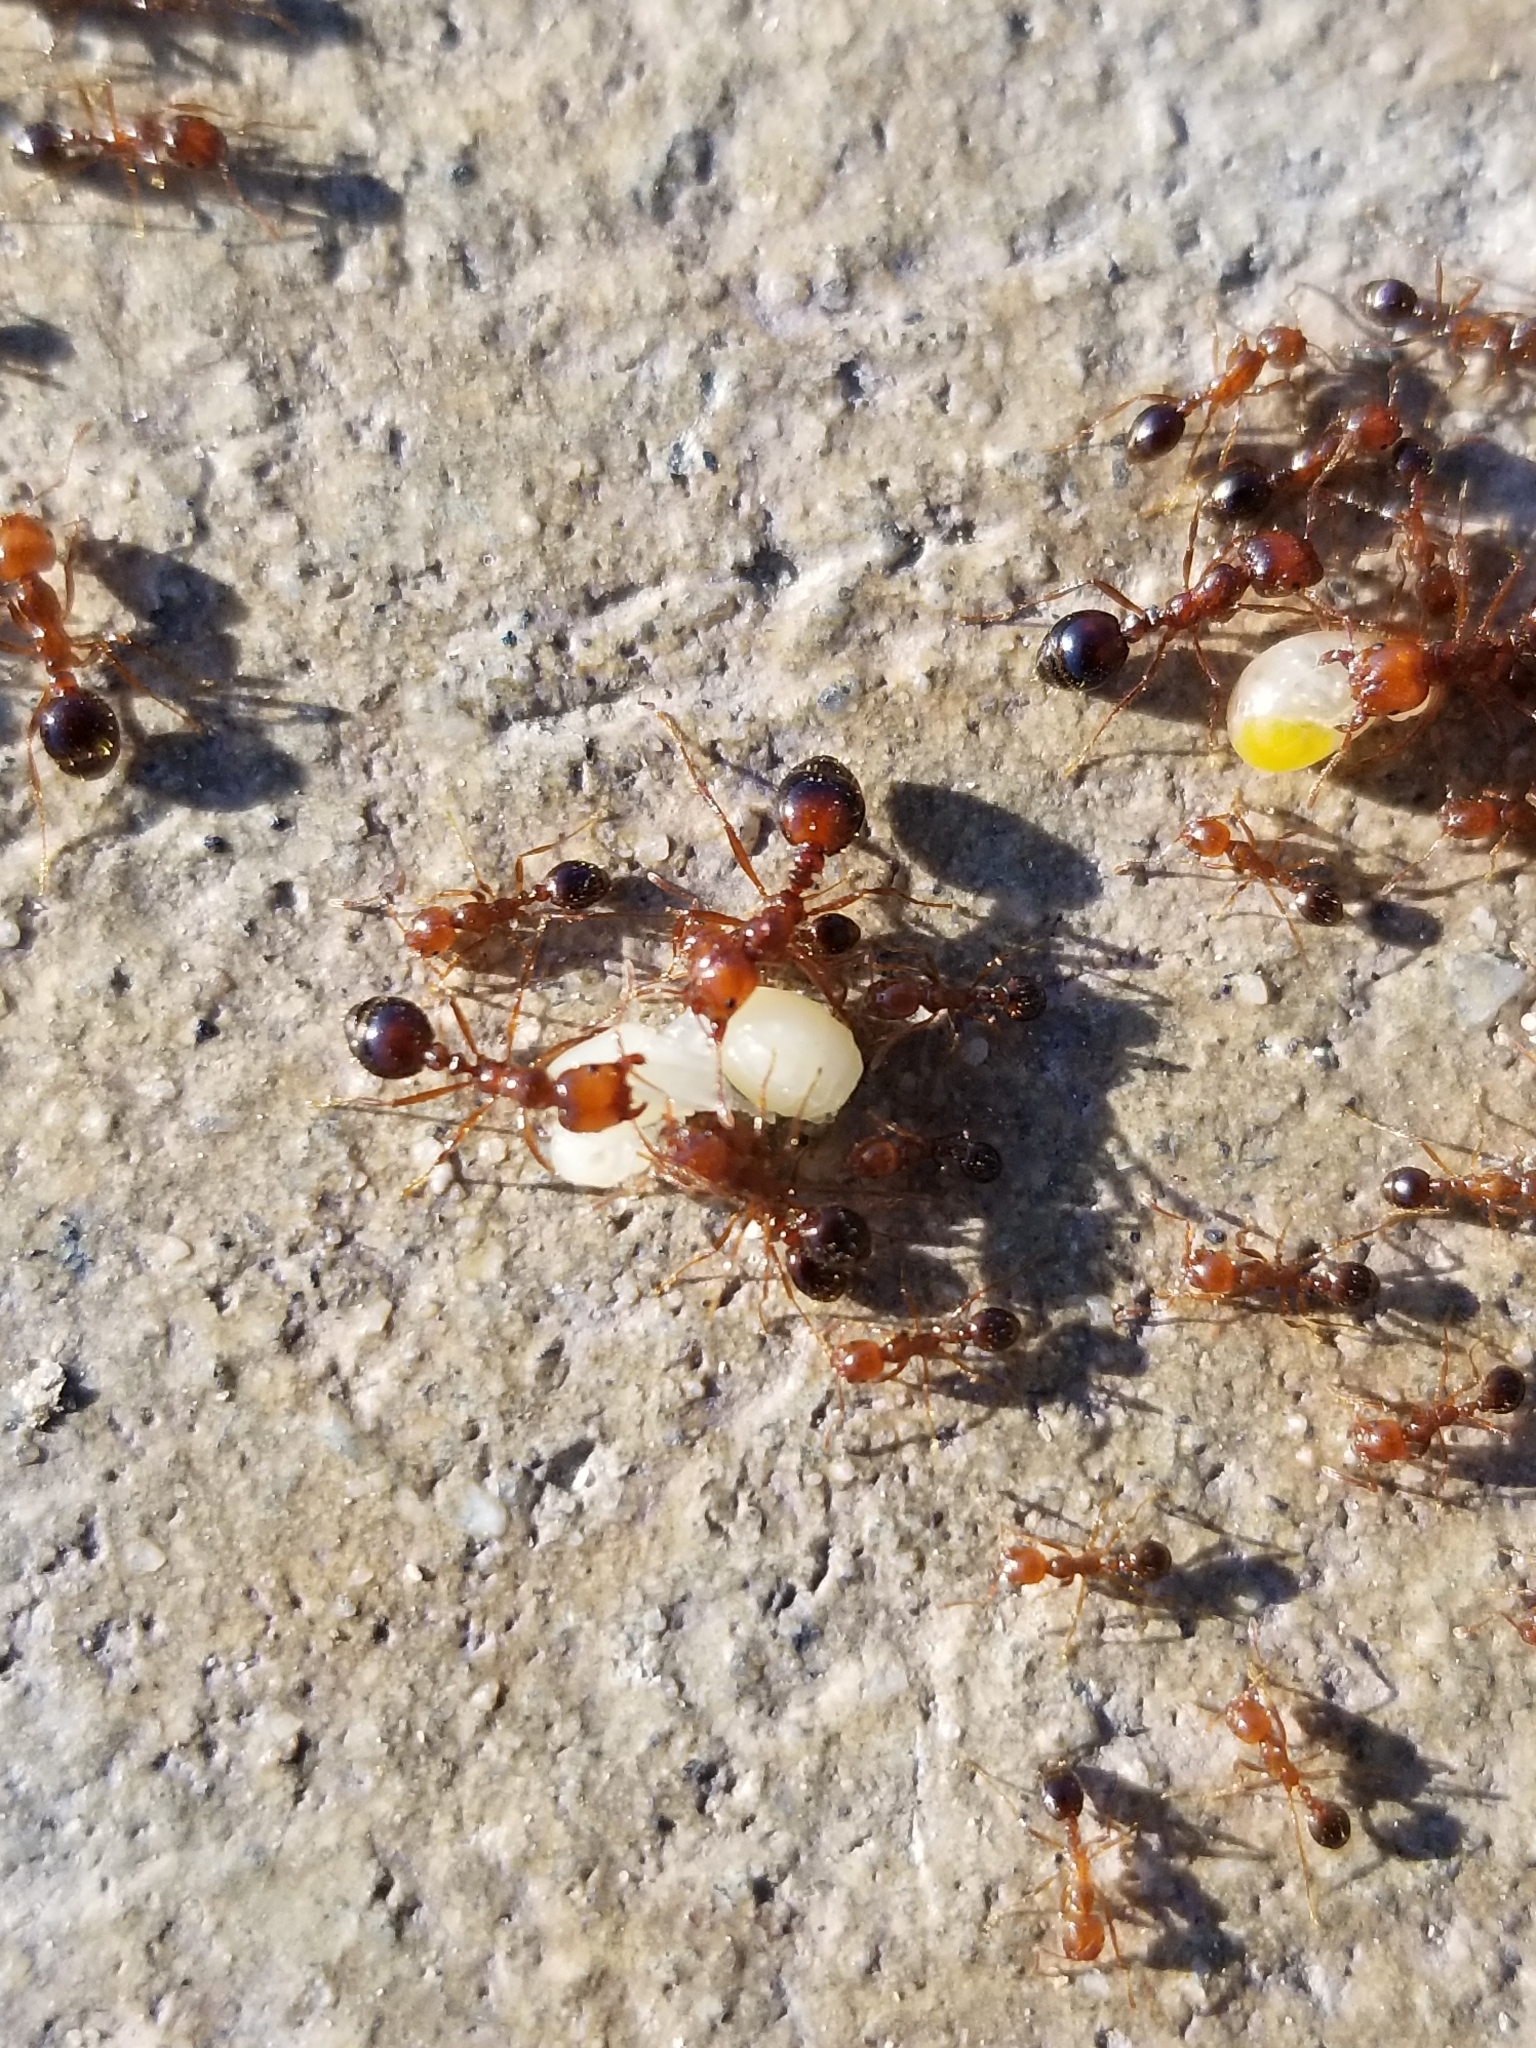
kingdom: Animalia
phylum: Arthropoda
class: Insecta
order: Hymenoptera
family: Formicidae
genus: Solenopsis
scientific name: Solenopsis xyloni
